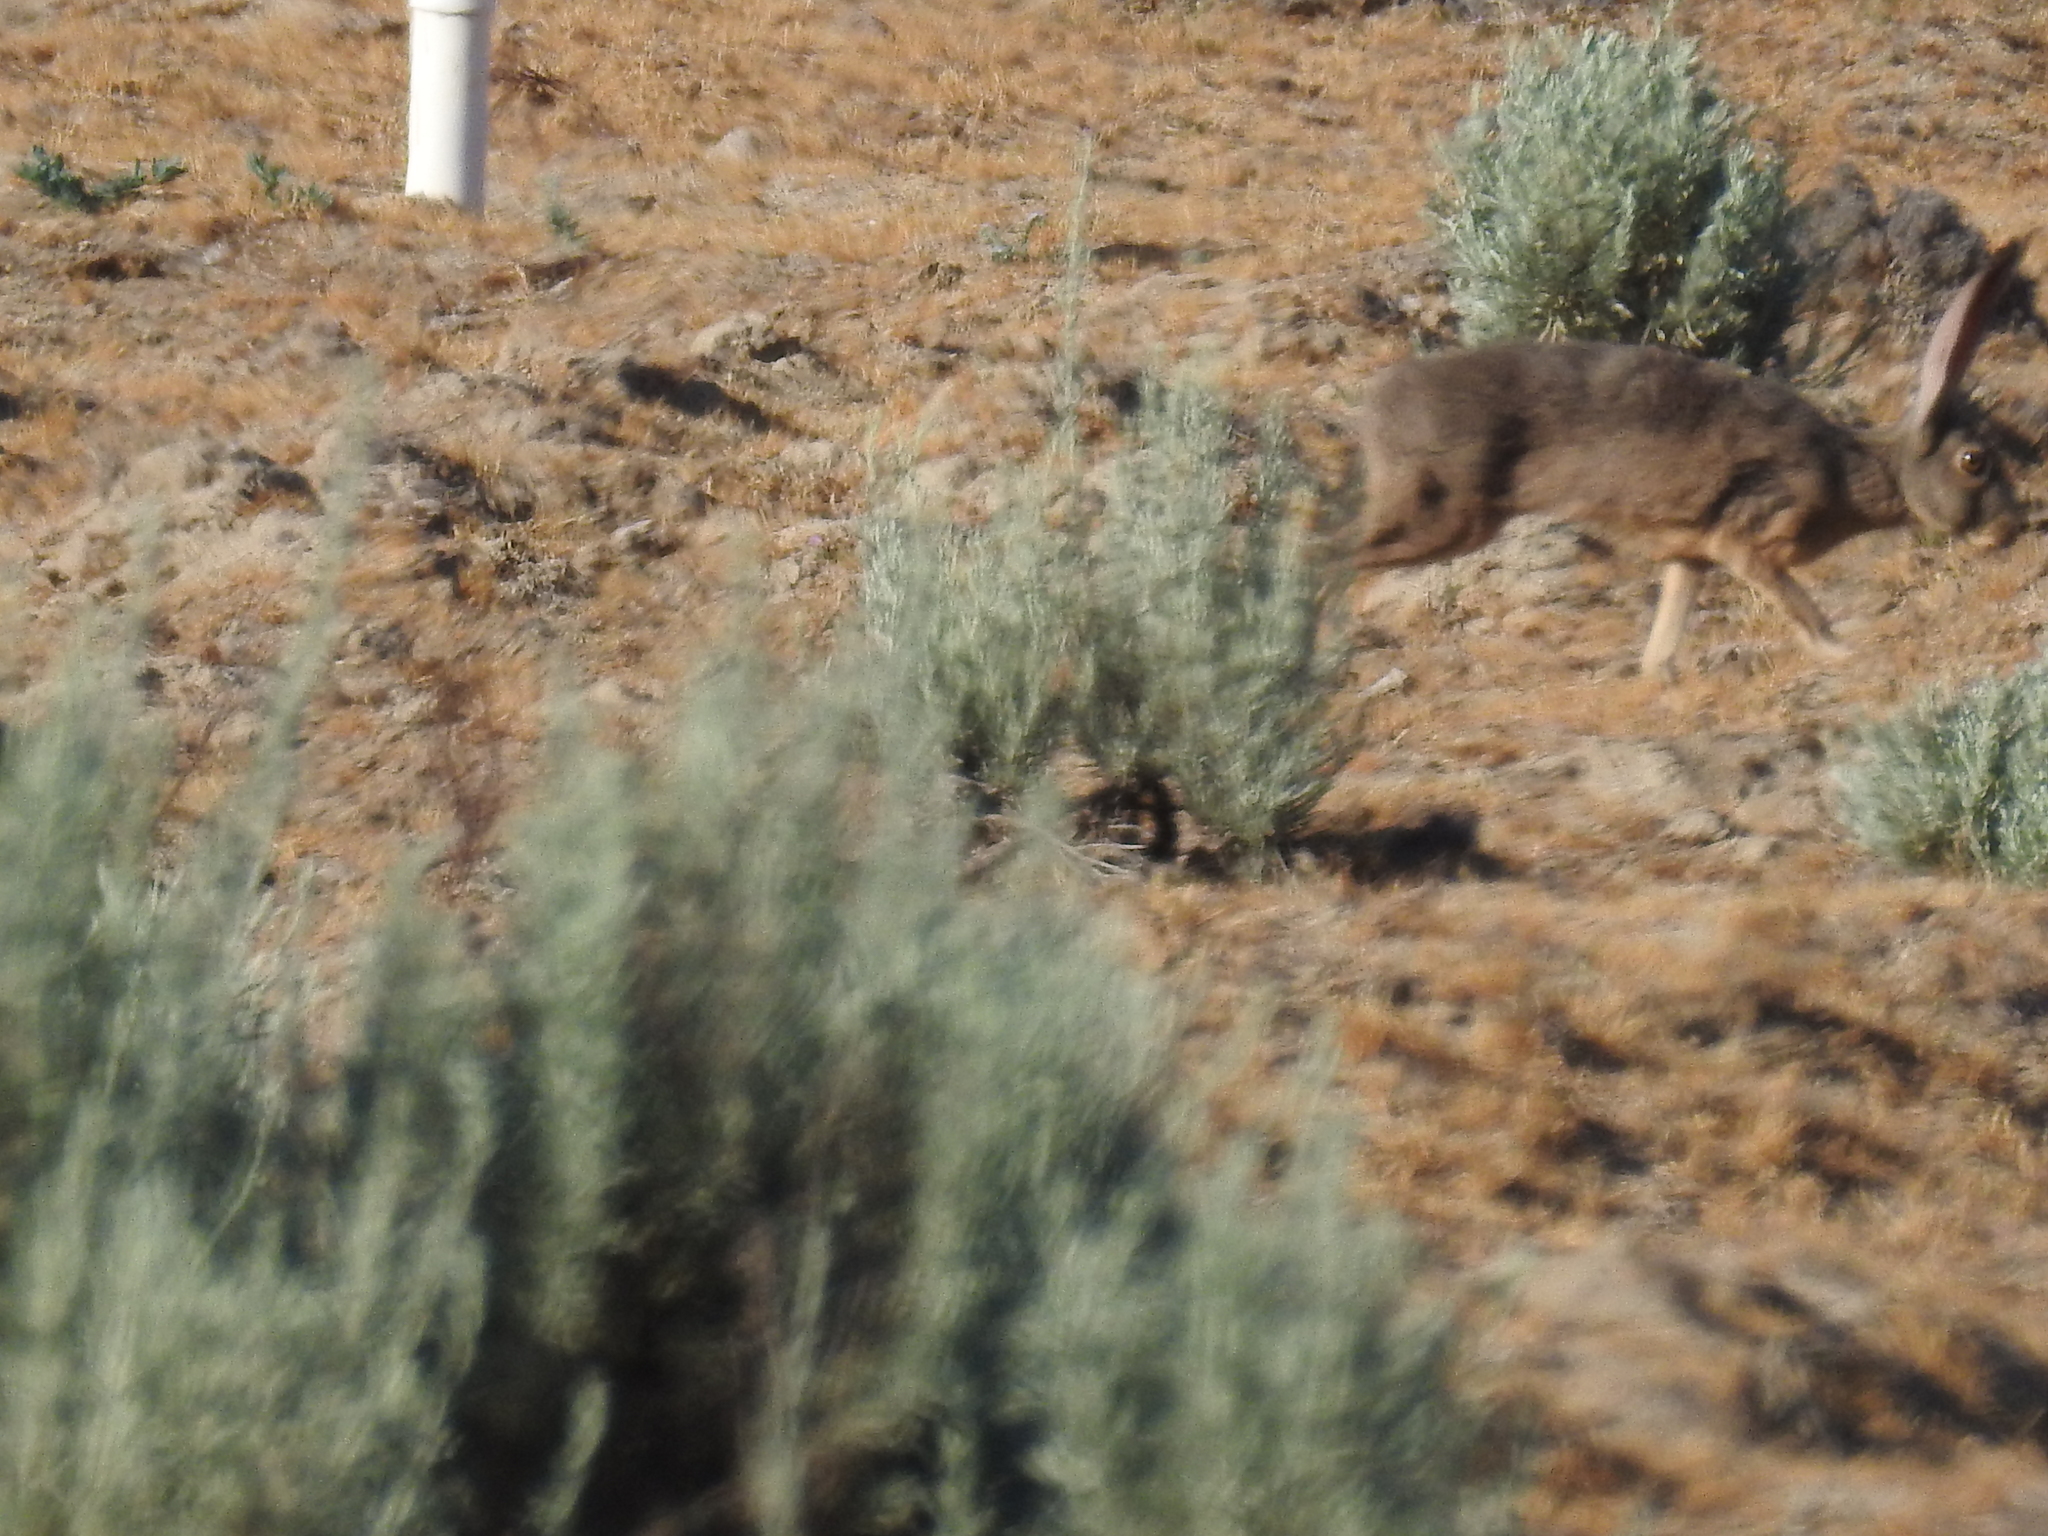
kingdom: Animalia
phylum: Chordata
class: Mammalia
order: Lagomorpha
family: Leporidae
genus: Lepus
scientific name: Lepus californicus
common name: Black-tailed jackrabbit
